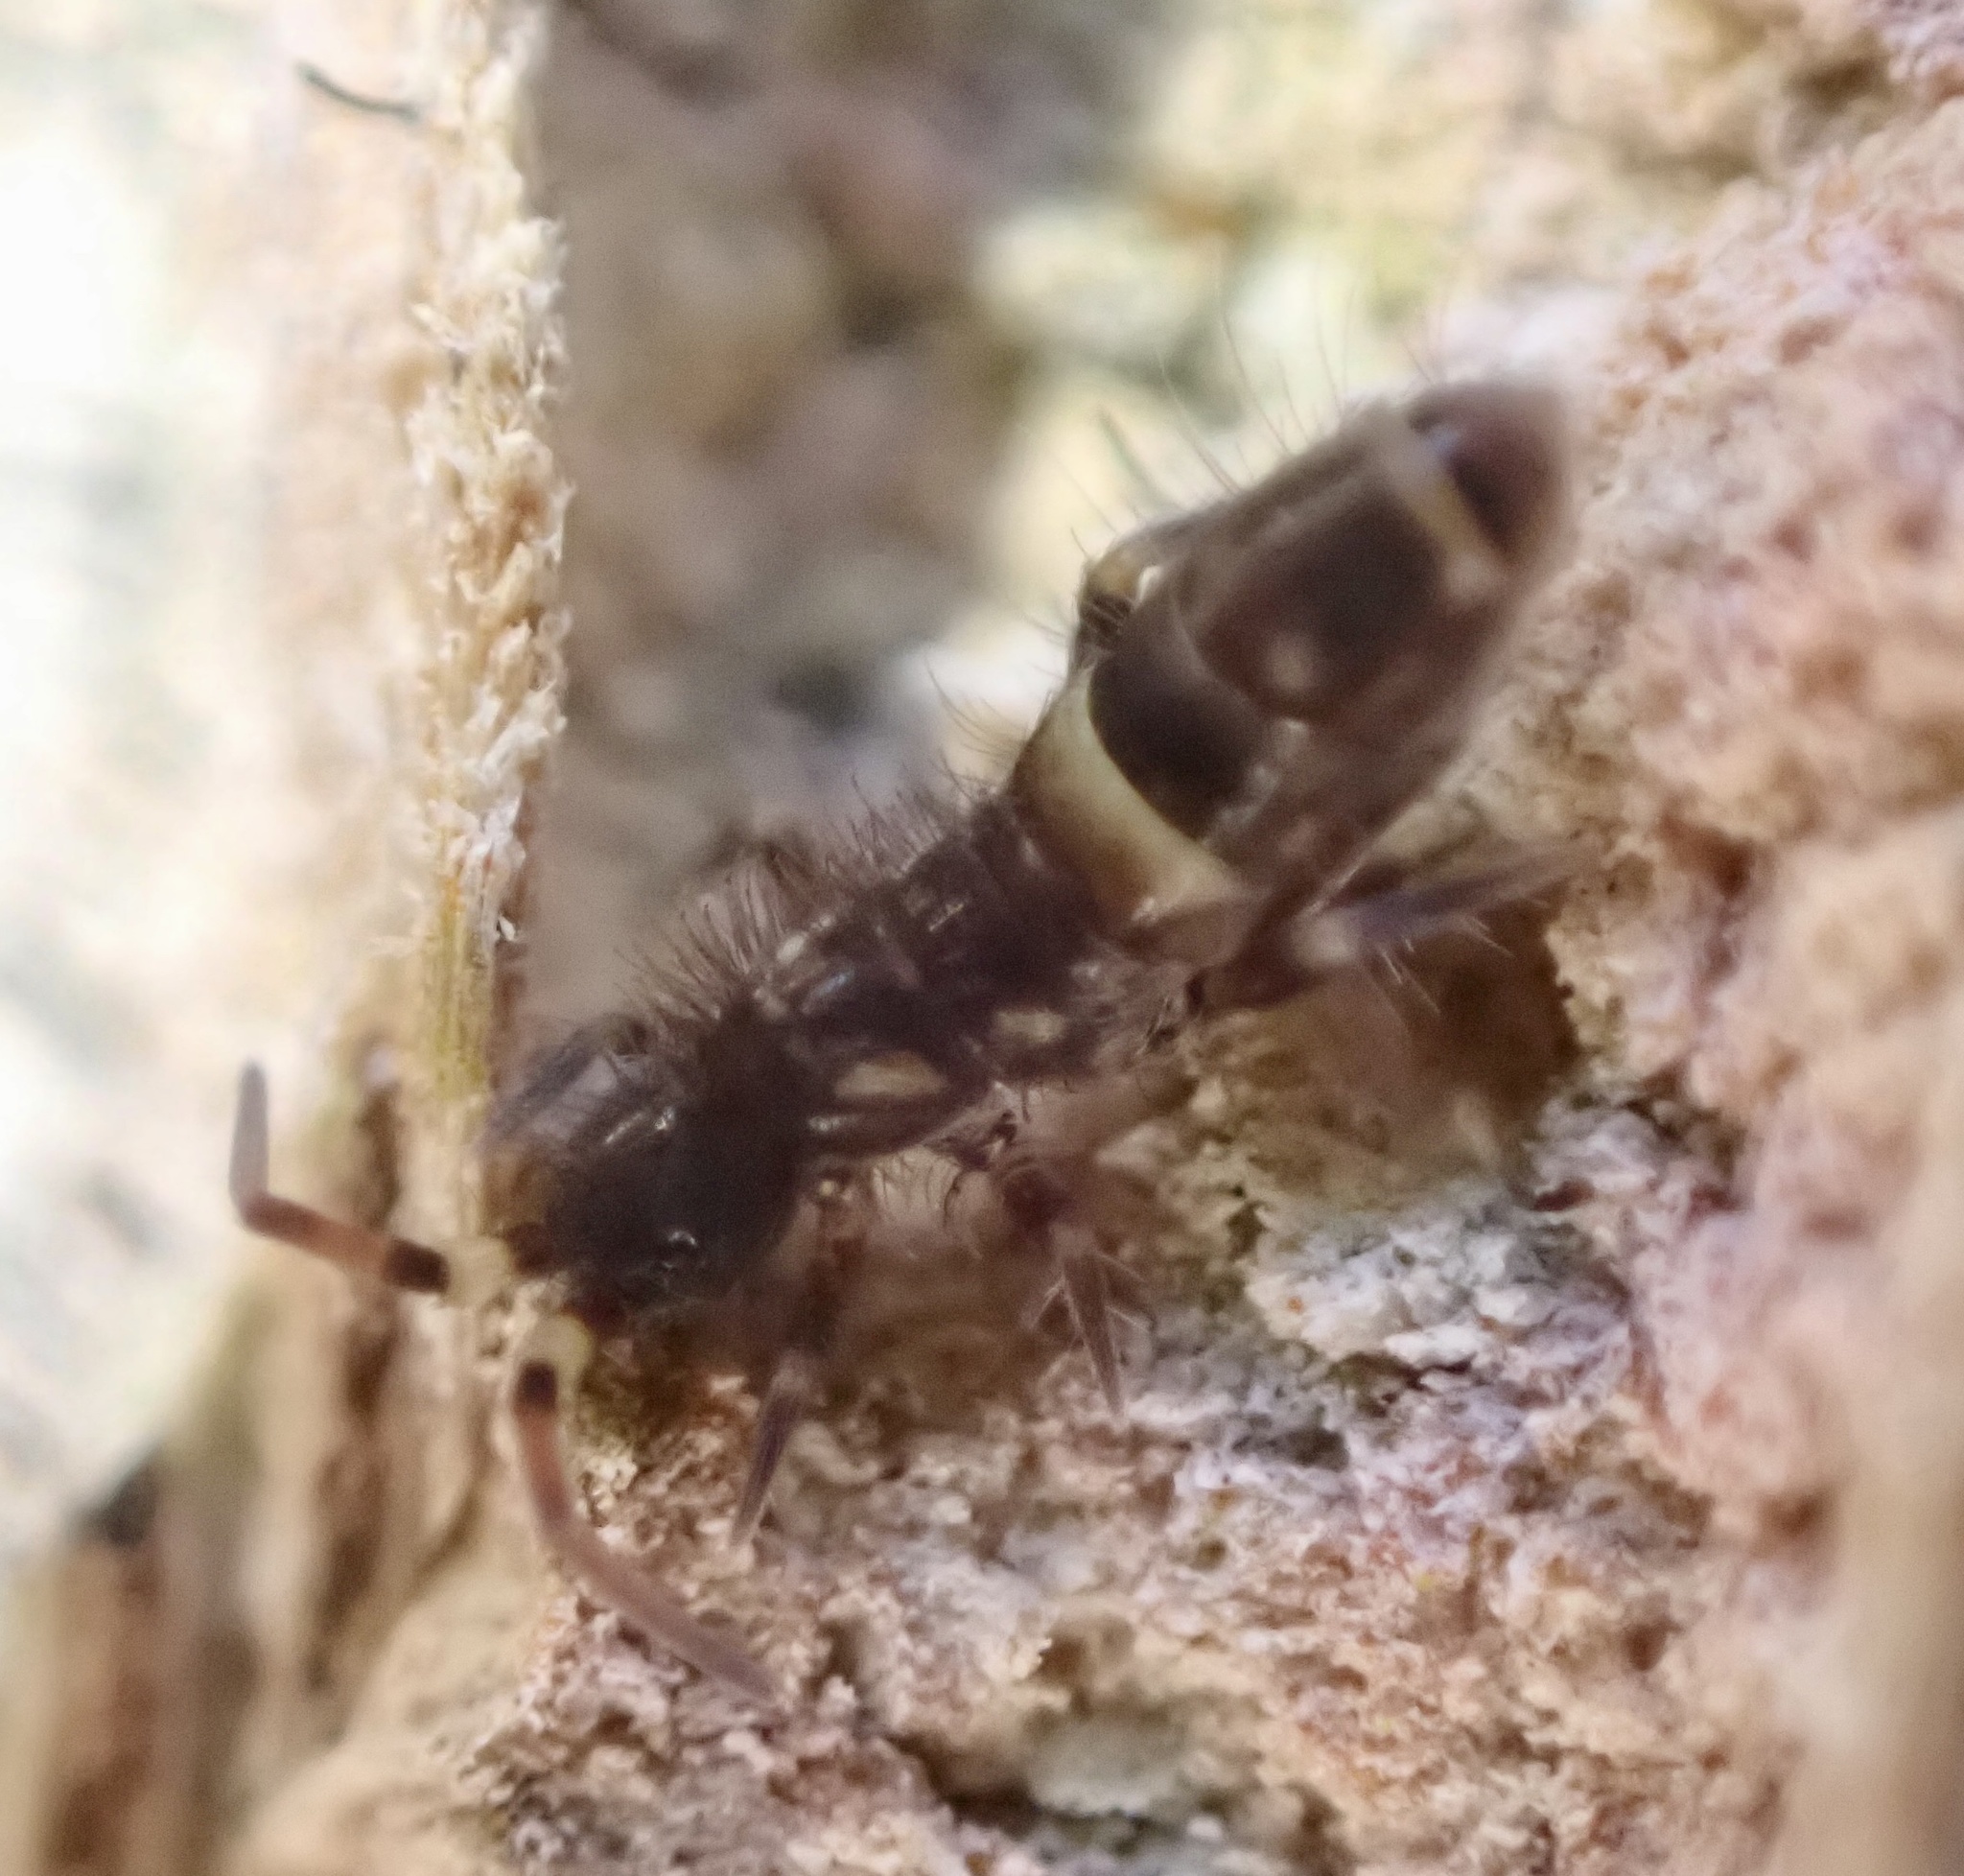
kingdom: Animalia
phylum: Arthropoda
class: Collembola
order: Entomobryomorpha
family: Orchesellidae
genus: Orchesella
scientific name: Orchesella cincta
